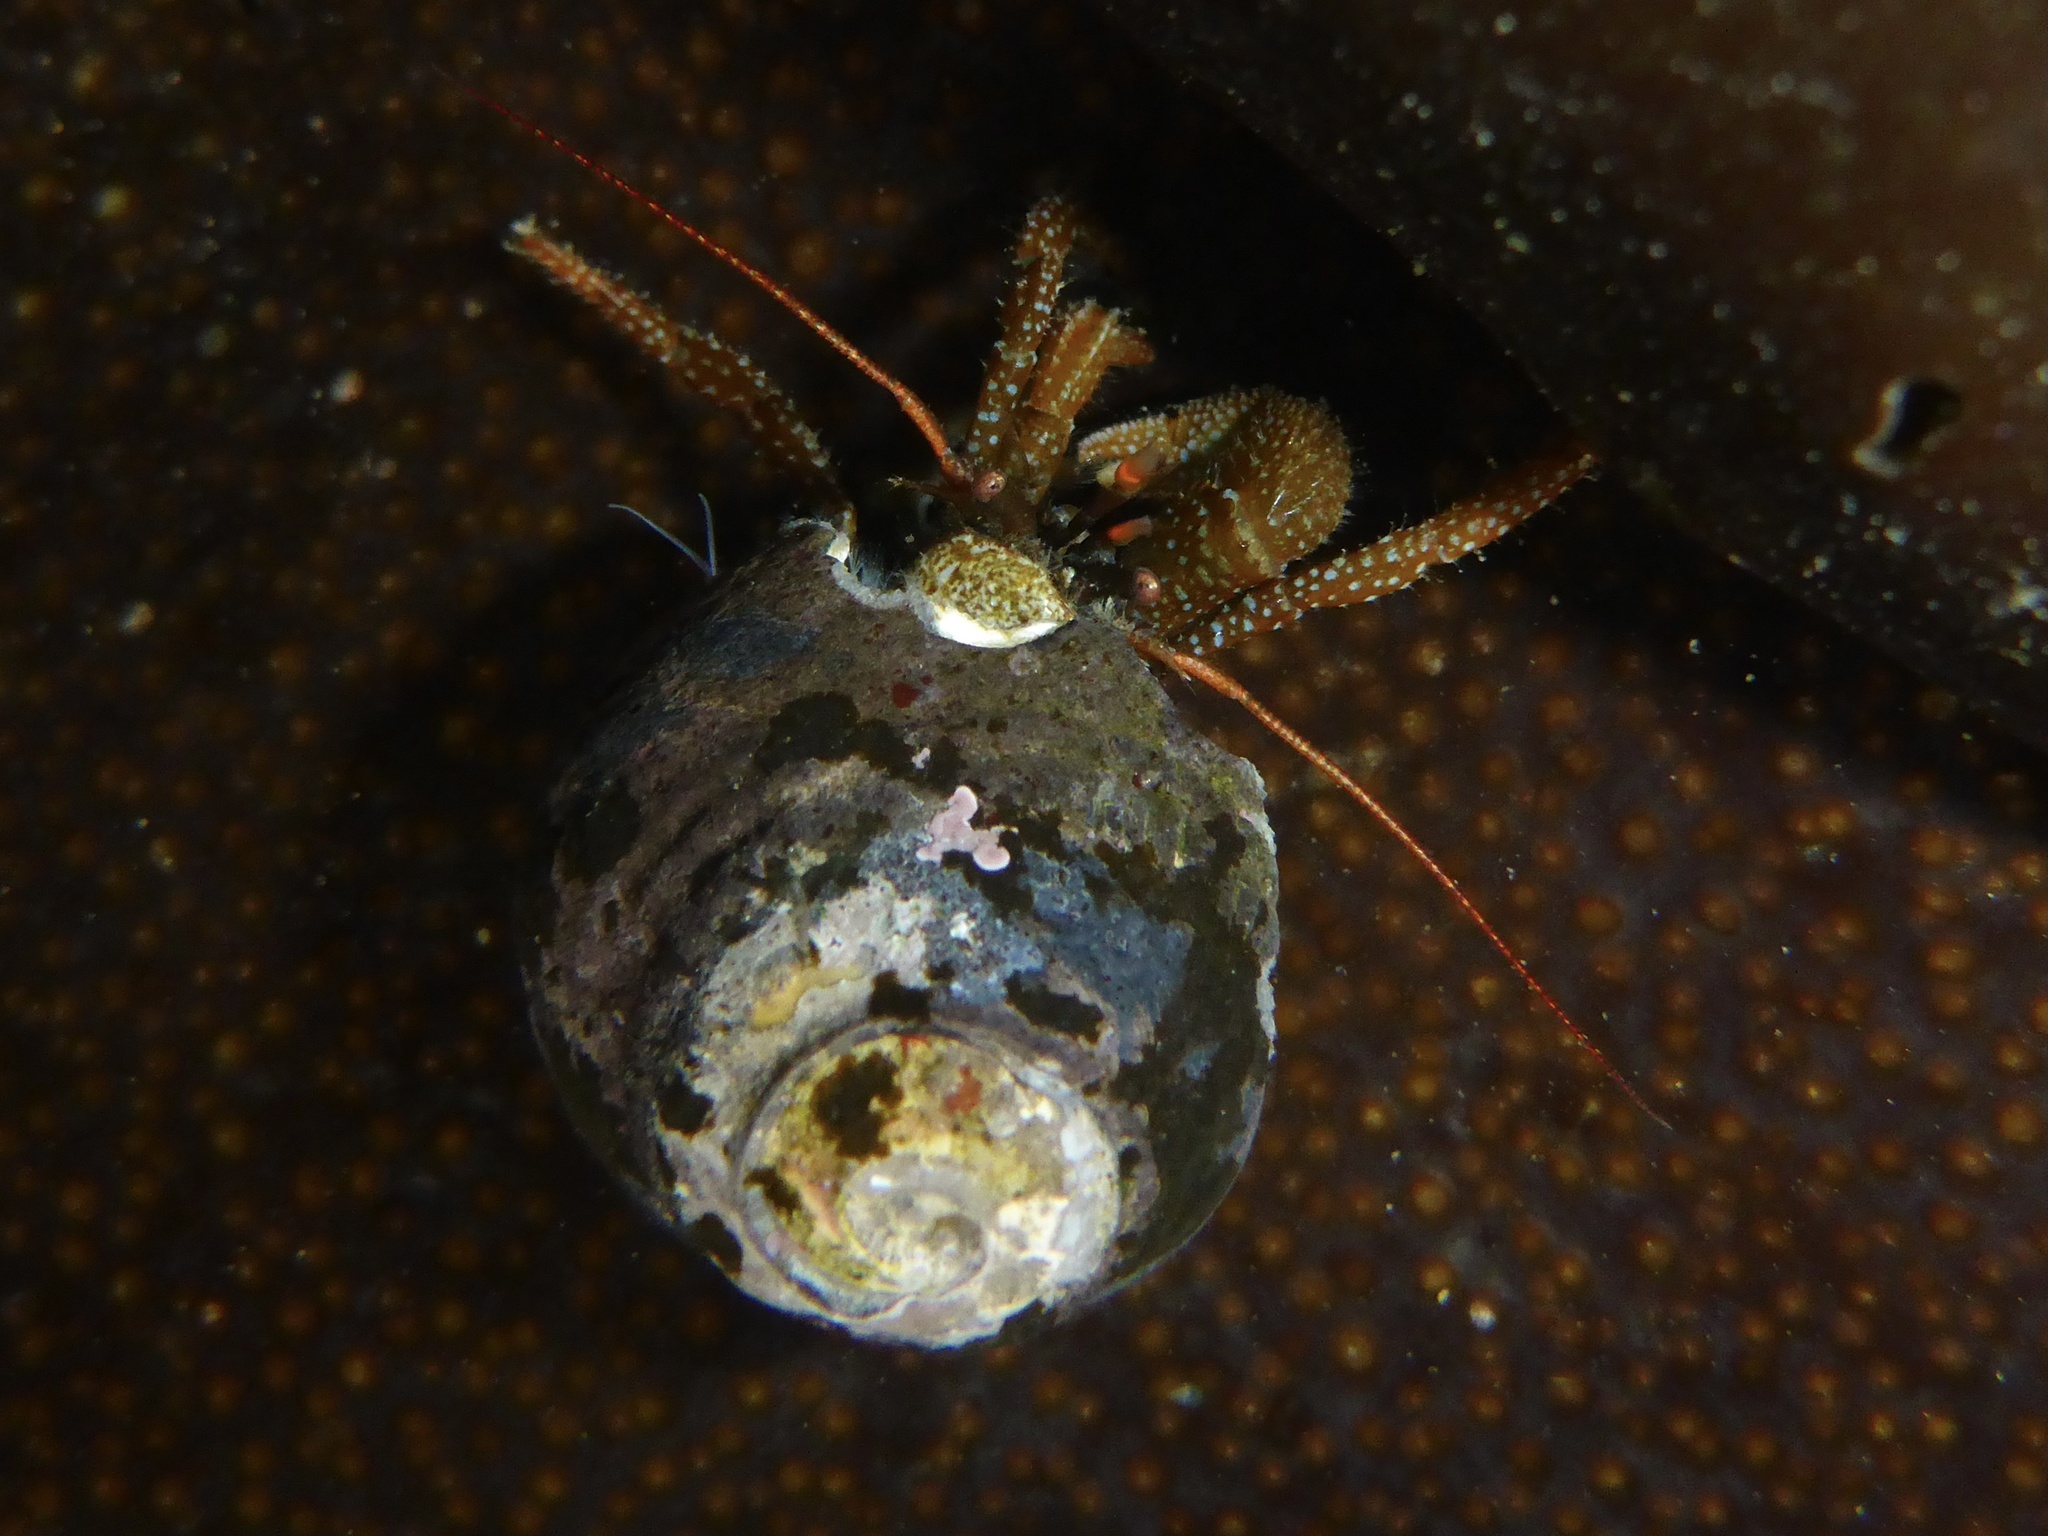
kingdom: Animalia
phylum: Arthropoda
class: Malacostraca
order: Decapoda
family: Paguridae
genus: Pagurus
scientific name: Pagurus granosimanus
